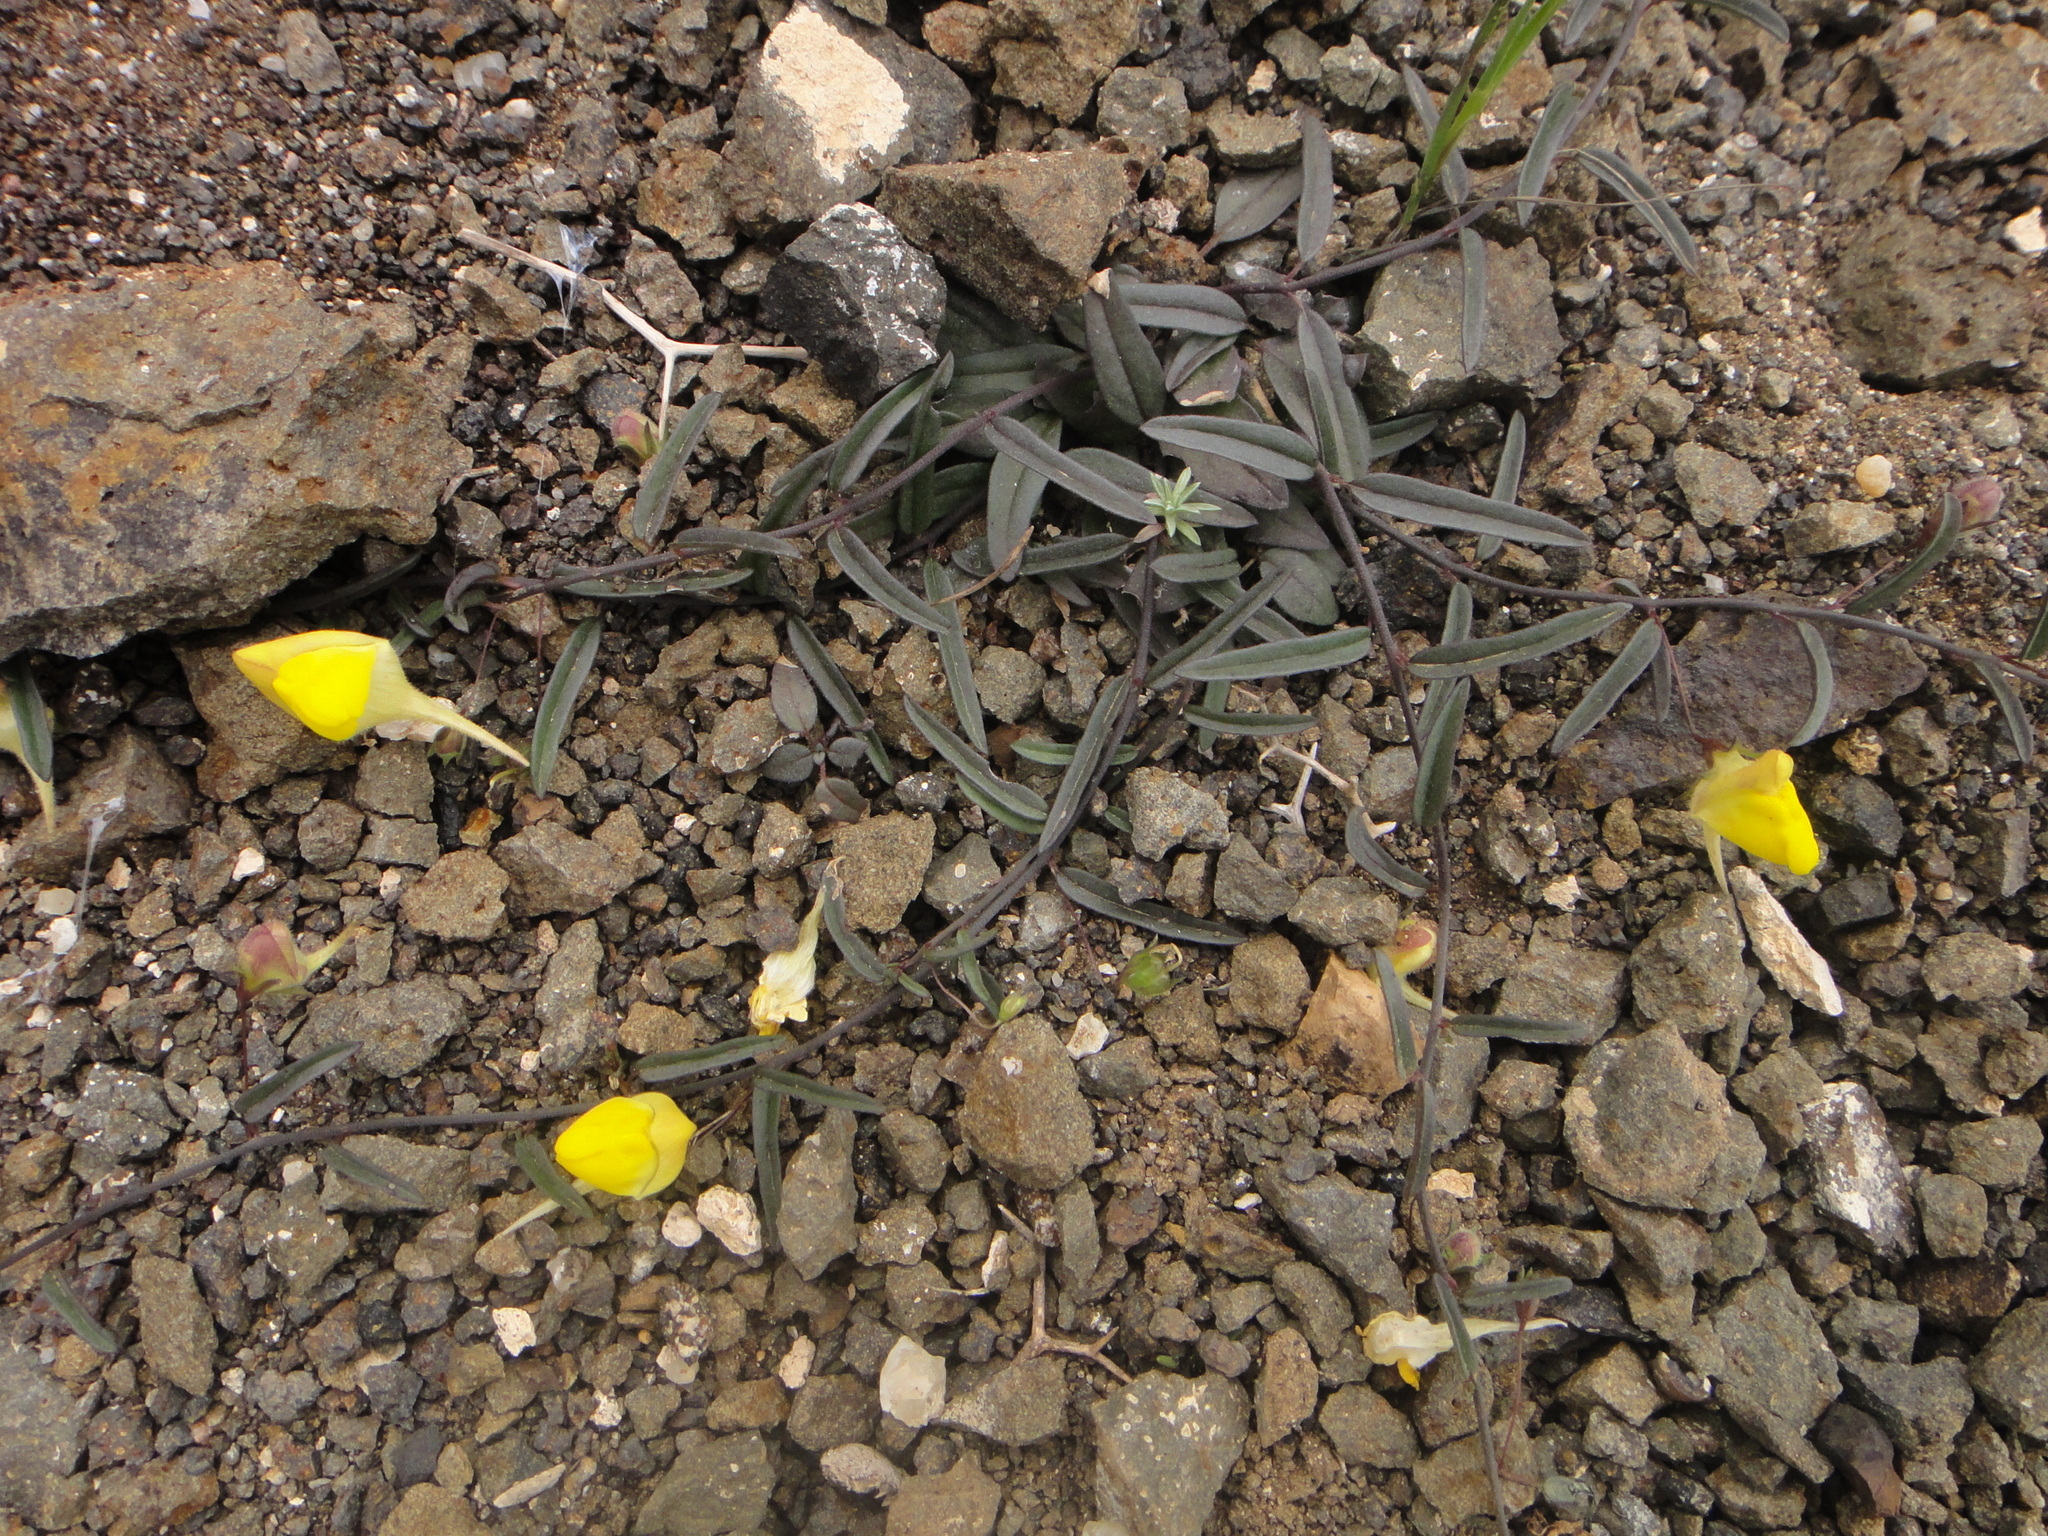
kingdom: Plantae
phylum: Tracheophyta
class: Magnoliopsida
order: Lamiales
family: Plantaginaceae
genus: Nanorrhinum
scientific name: Nanorrhinum sagittatum
